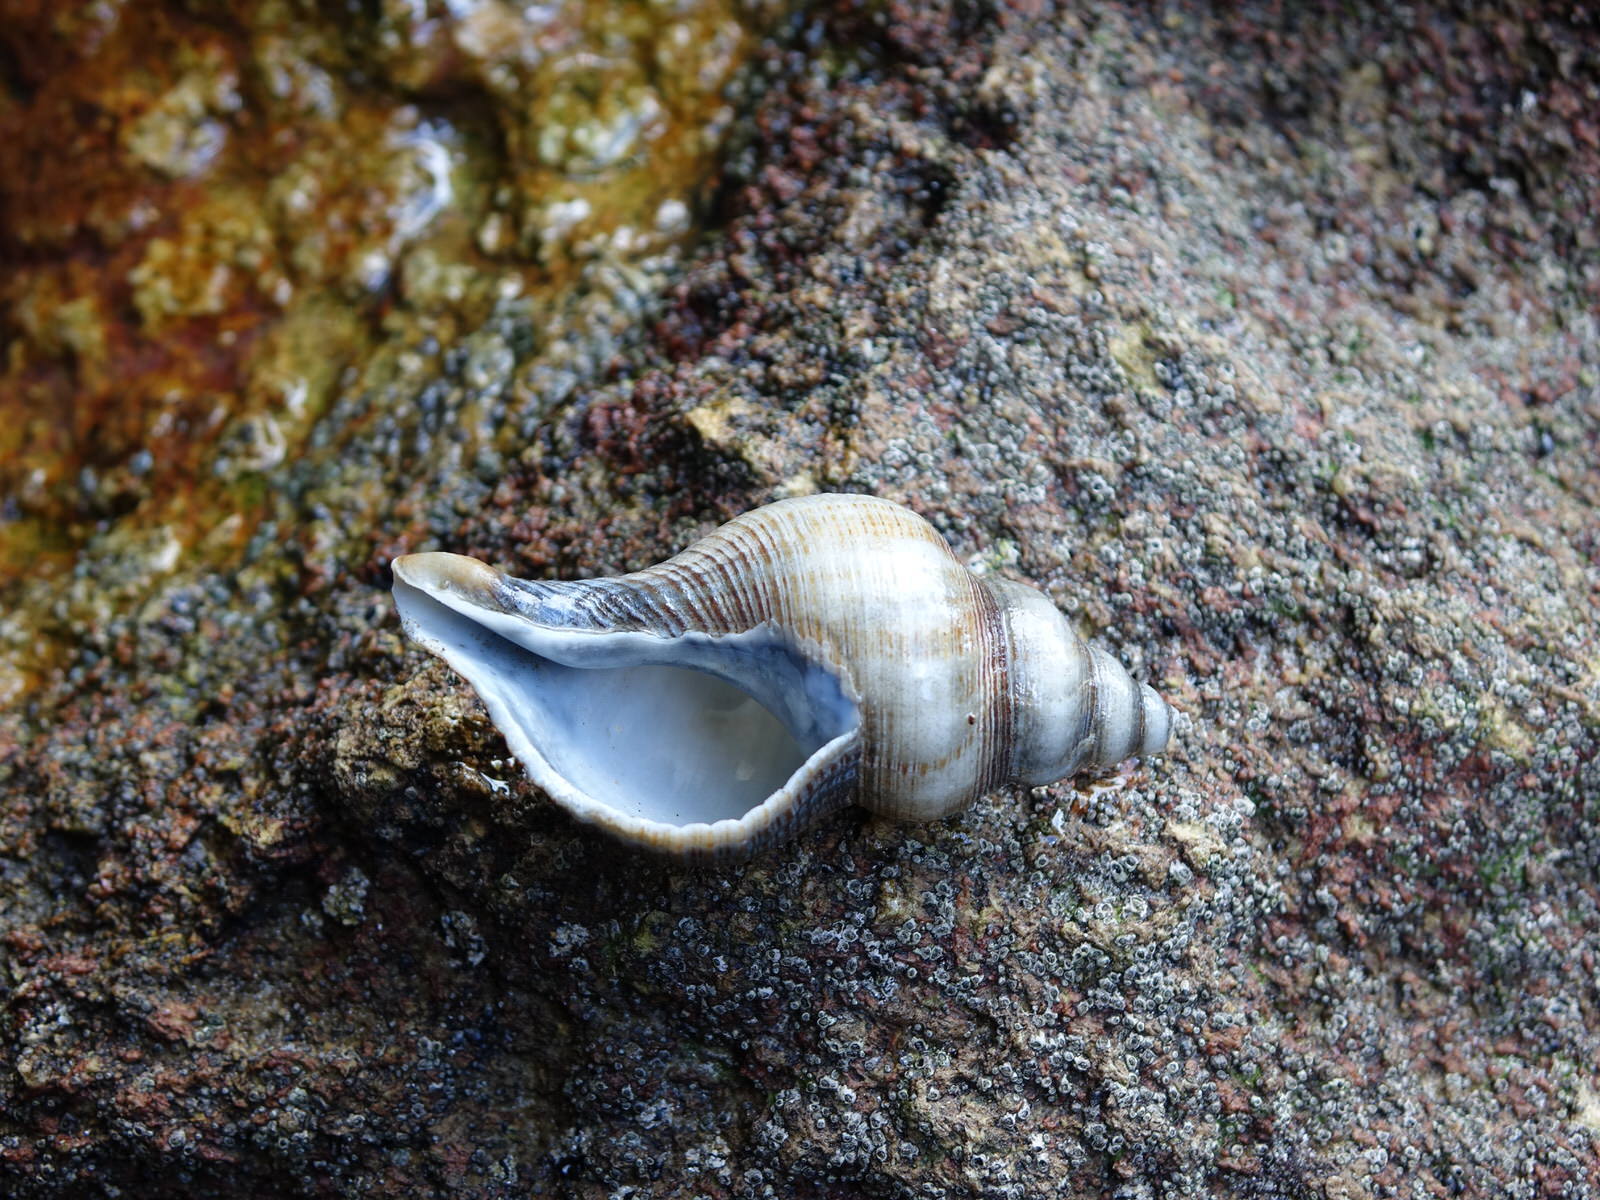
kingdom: Animalia
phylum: Mollusca
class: Gastropoda
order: Neogastropoda
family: Austrosiphonidae
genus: Penion
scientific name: Penion sulcatus
